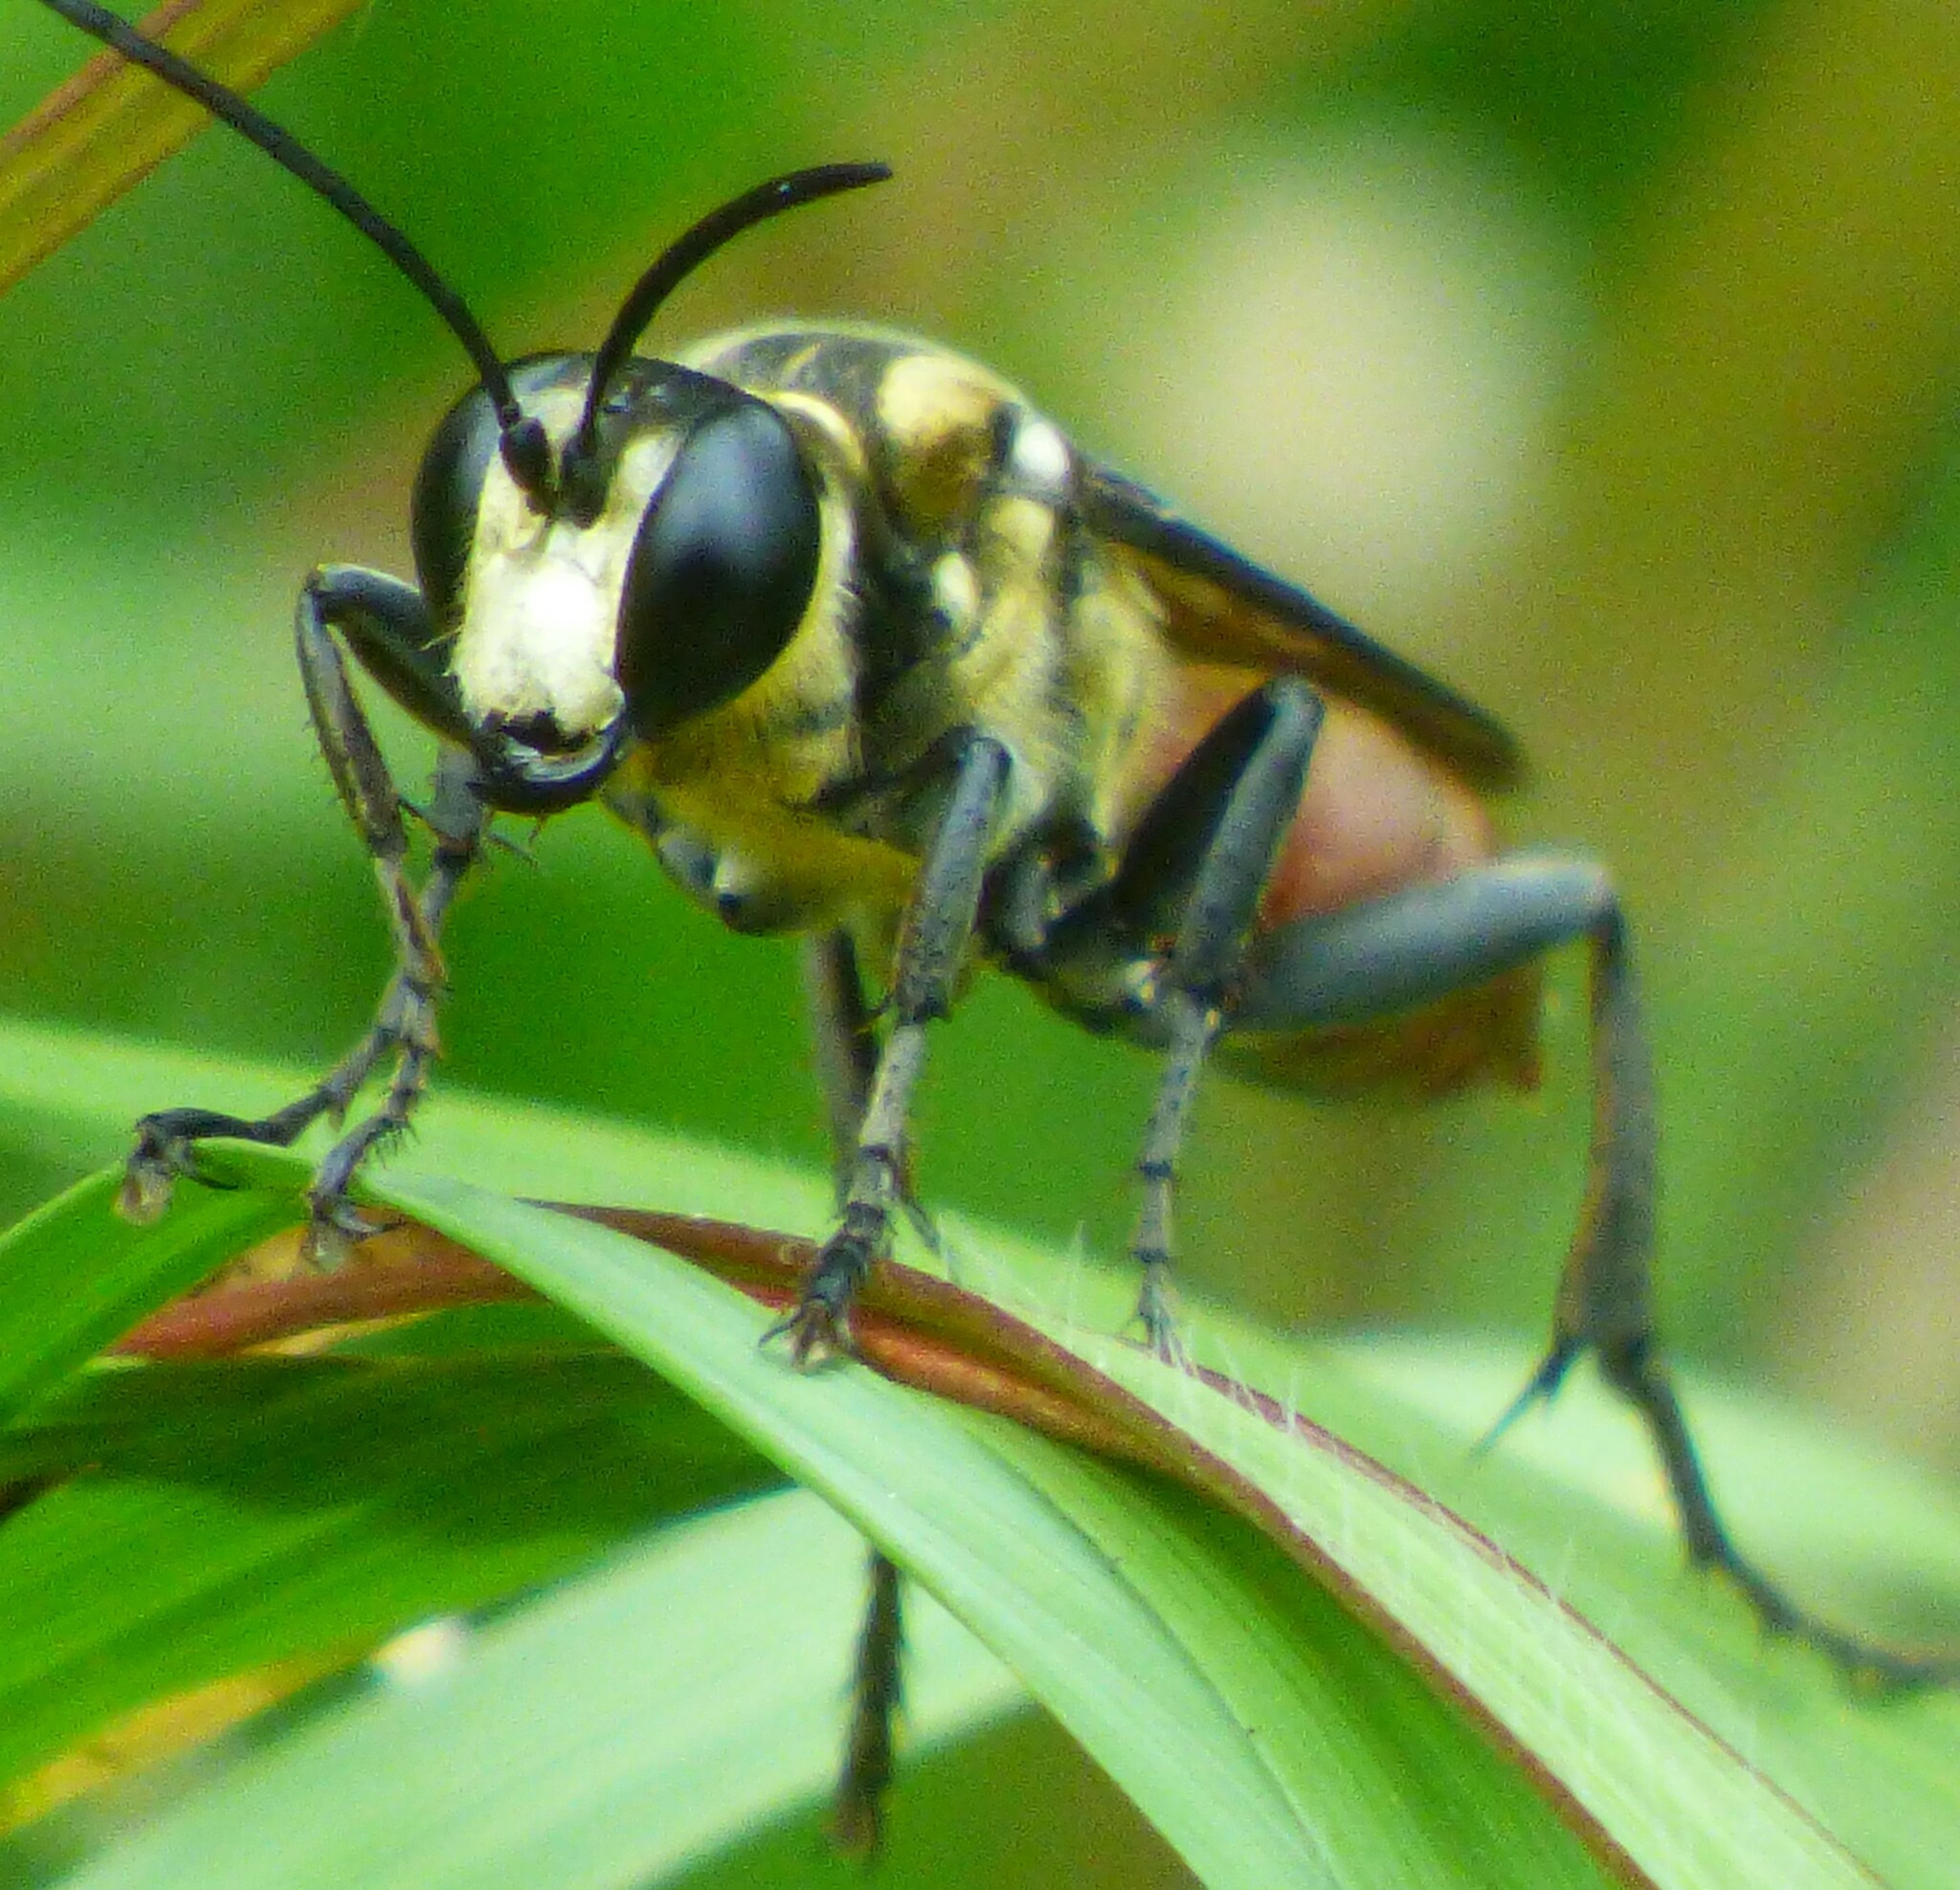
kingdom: Animalia
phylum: Arthropoda
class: Insecta
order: Hymenoptera
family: Sphecidae
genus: Sphex
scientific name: Sphex habenus
